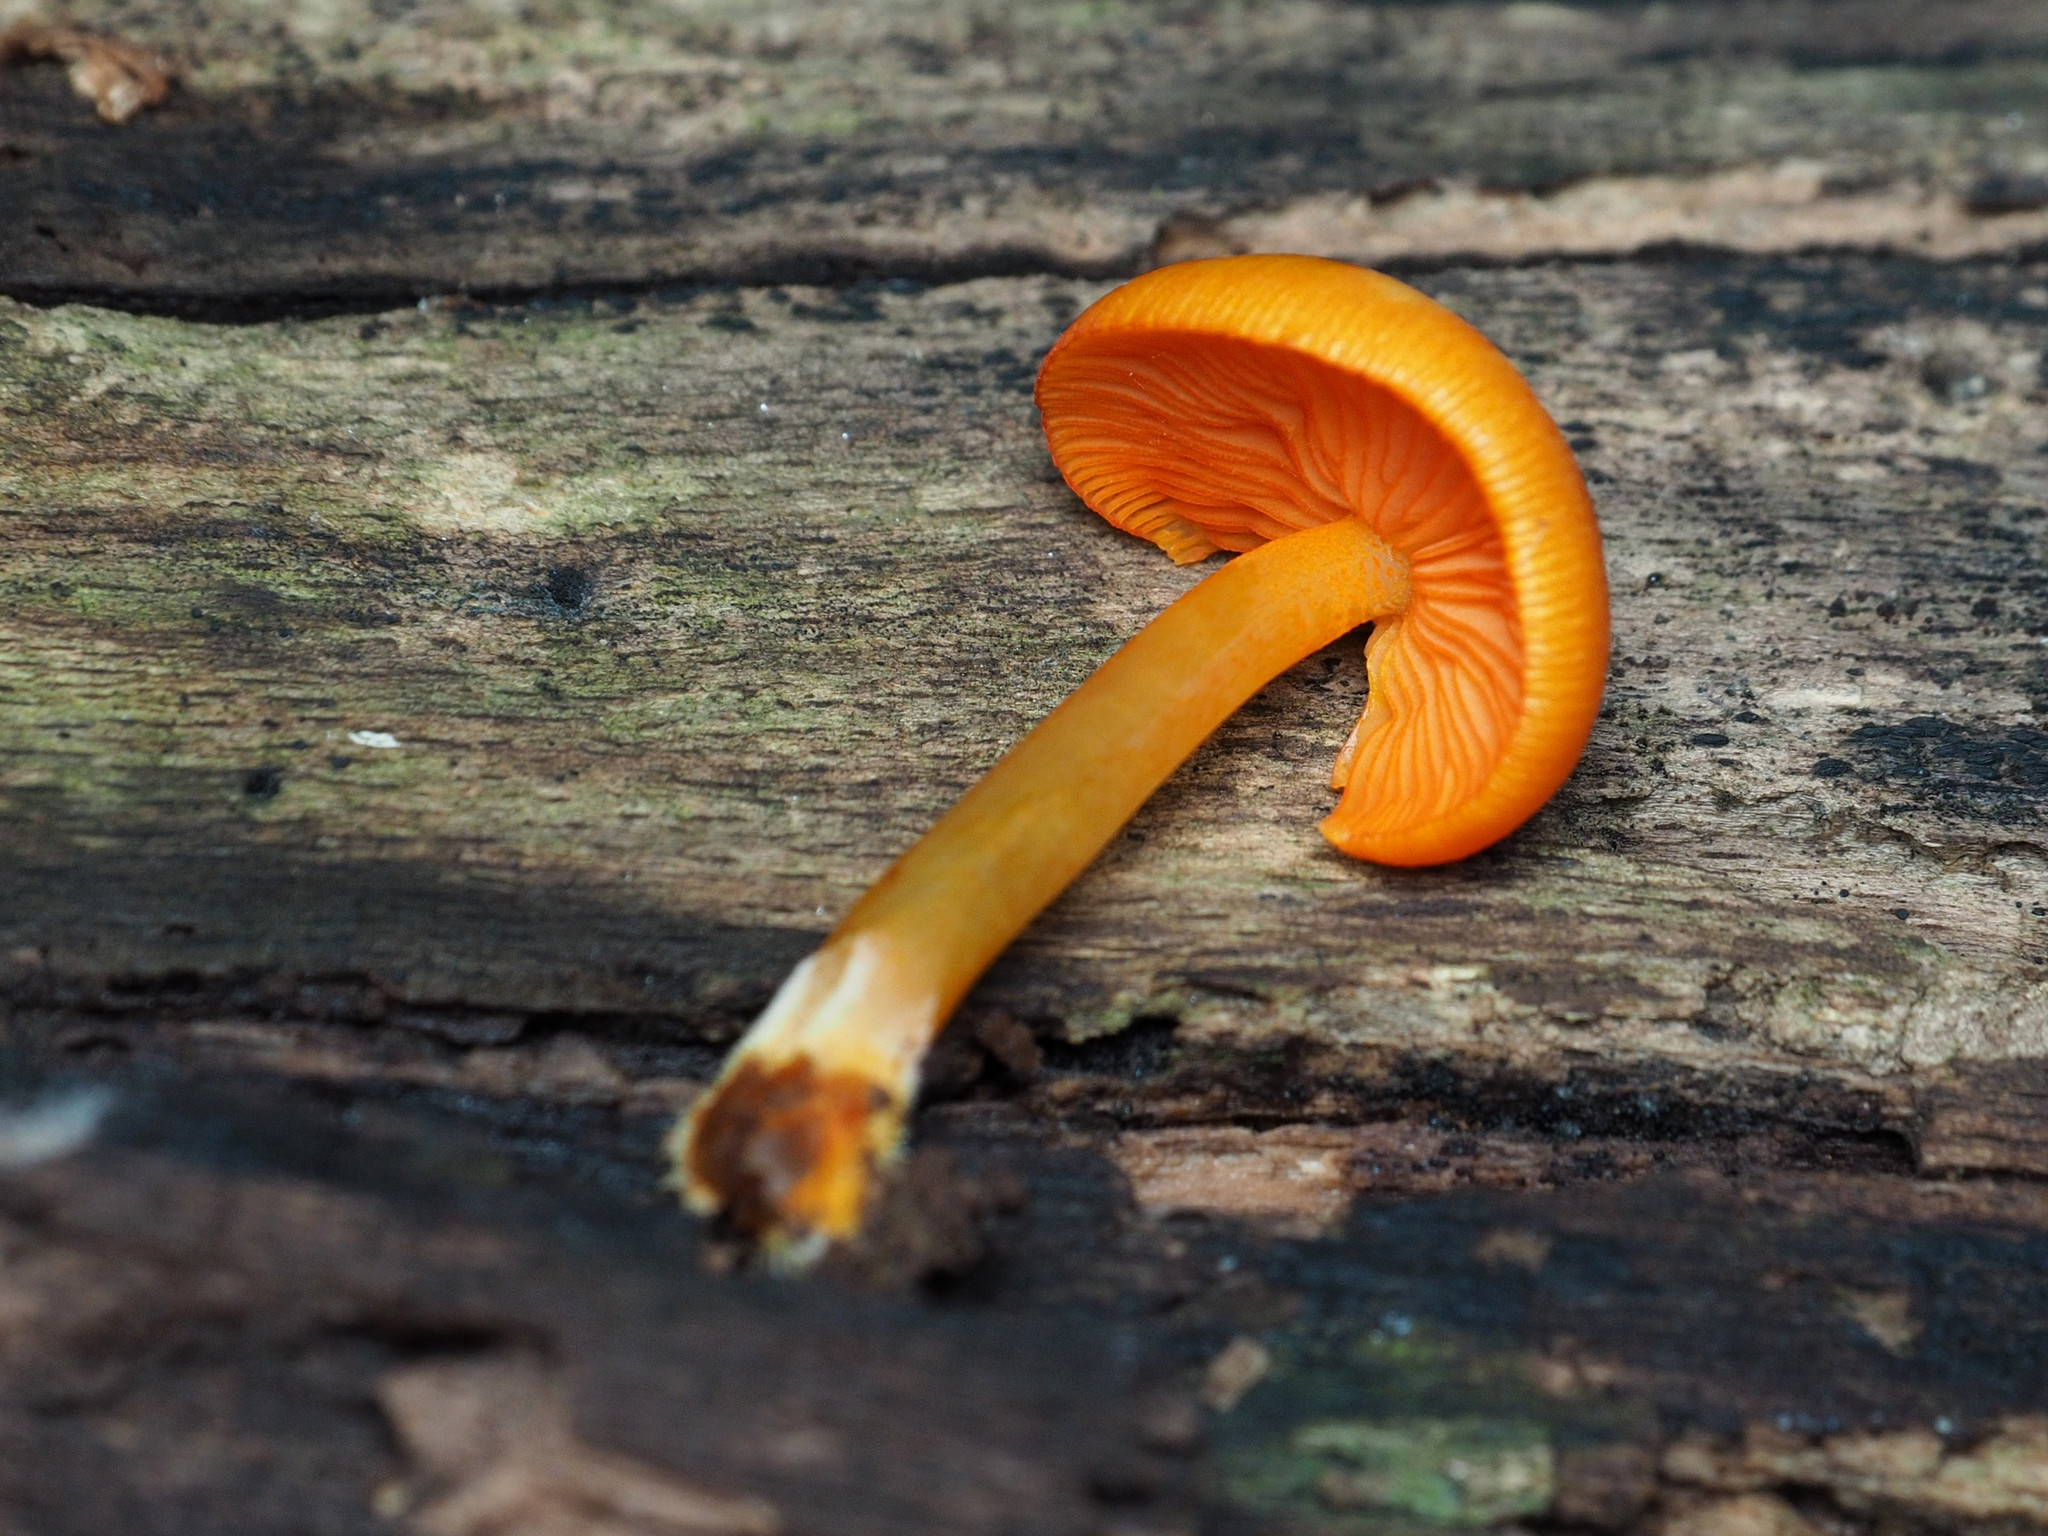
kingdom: Fungi
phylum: Basidiomycota
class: Agaricomycetes
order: Agaricales
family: Mycenaceae
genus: Mycena
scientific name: Mycena leaiana
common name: Orange mycena
